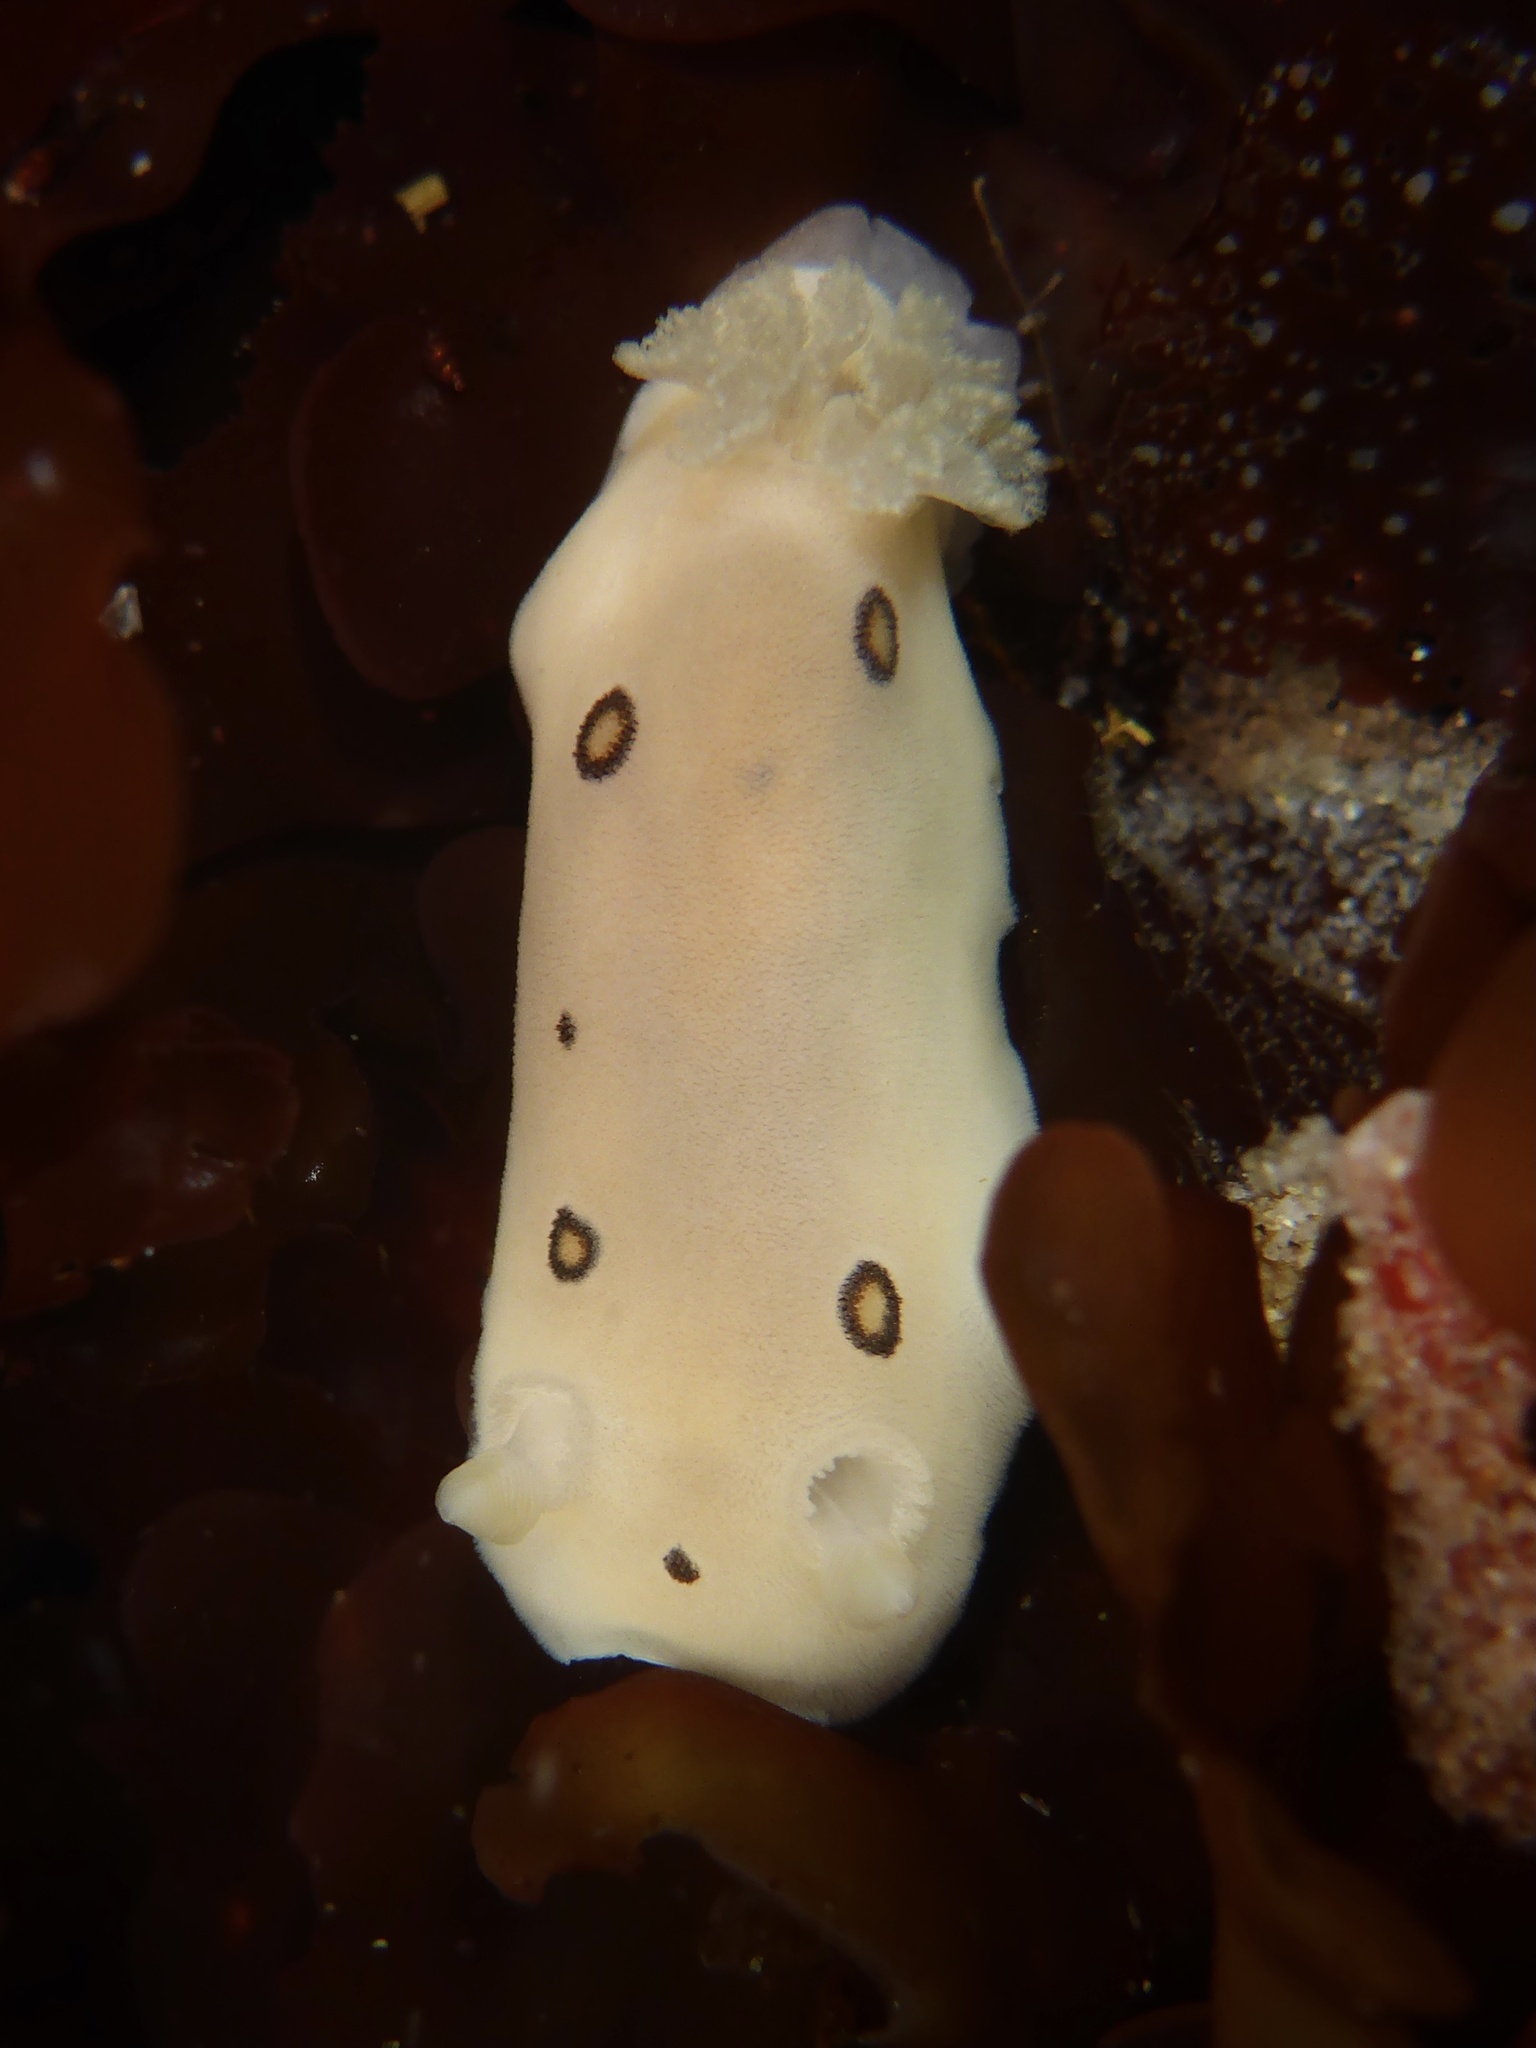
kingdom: Animalia
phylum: Mollusca
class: Gastropoda
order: Nudibranchia
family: Discodorididae
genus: Diaulula
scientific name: Diaulula sandiegensis
